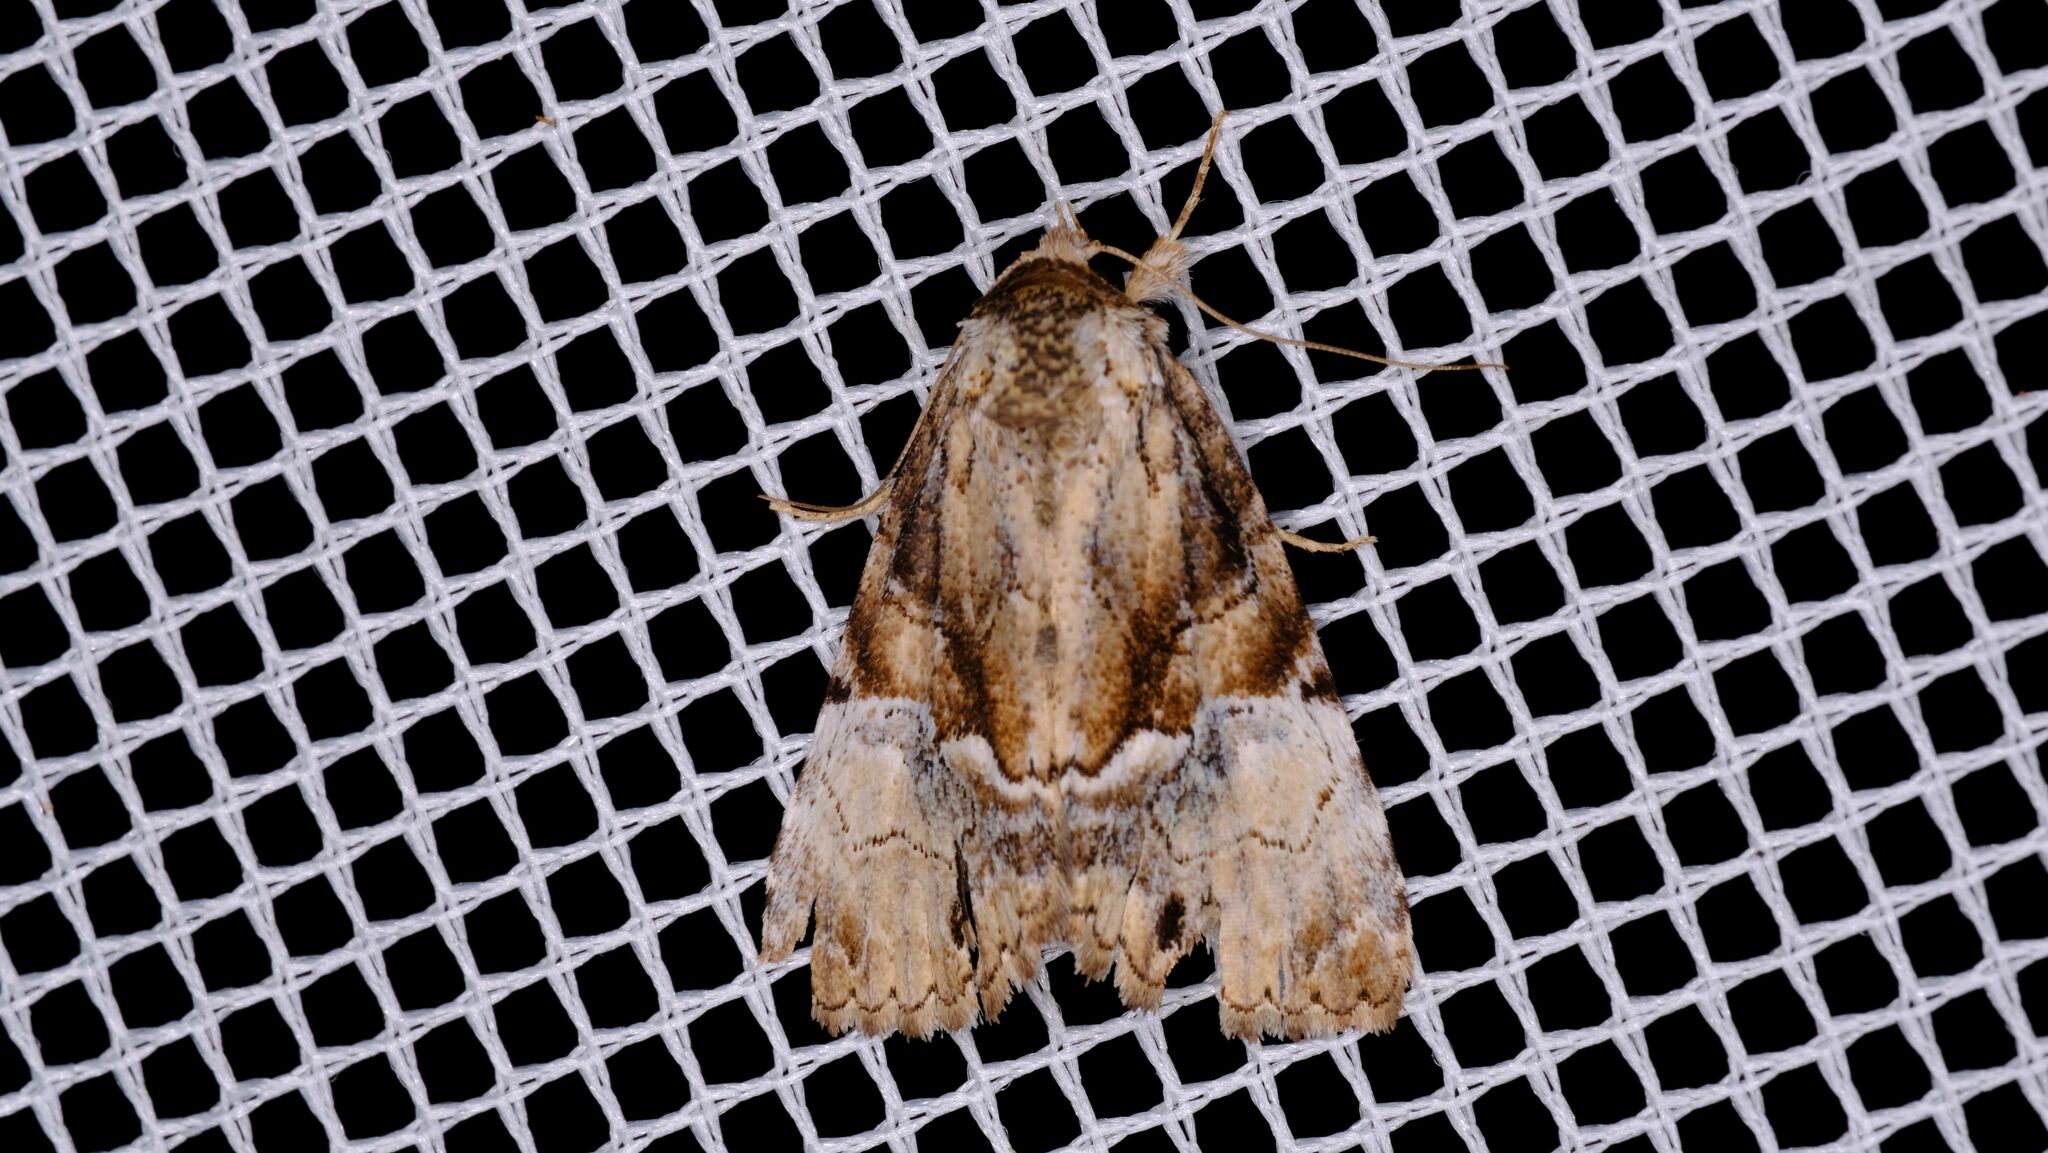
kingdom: Animalia
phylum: Arthropoda
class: Insecta
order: Lepidoptera
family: Erebidae
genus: Alophosoma
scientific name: Alophosoma emmelopis
